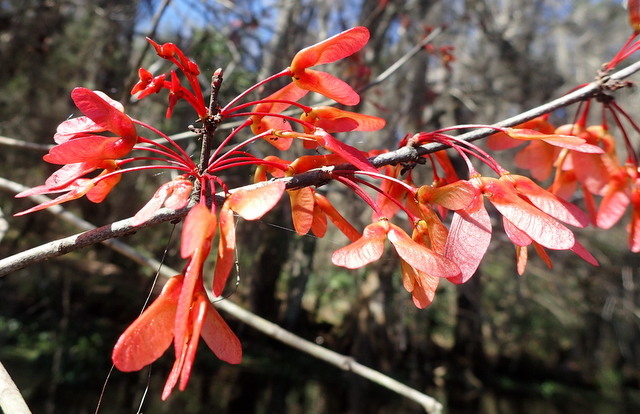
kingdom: Plantae
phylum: Tracheophyta
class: Magnoliopsida
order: Sapindales
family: Sapindaceae
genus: Acer
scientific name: Acer rubrum
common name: Red maple
